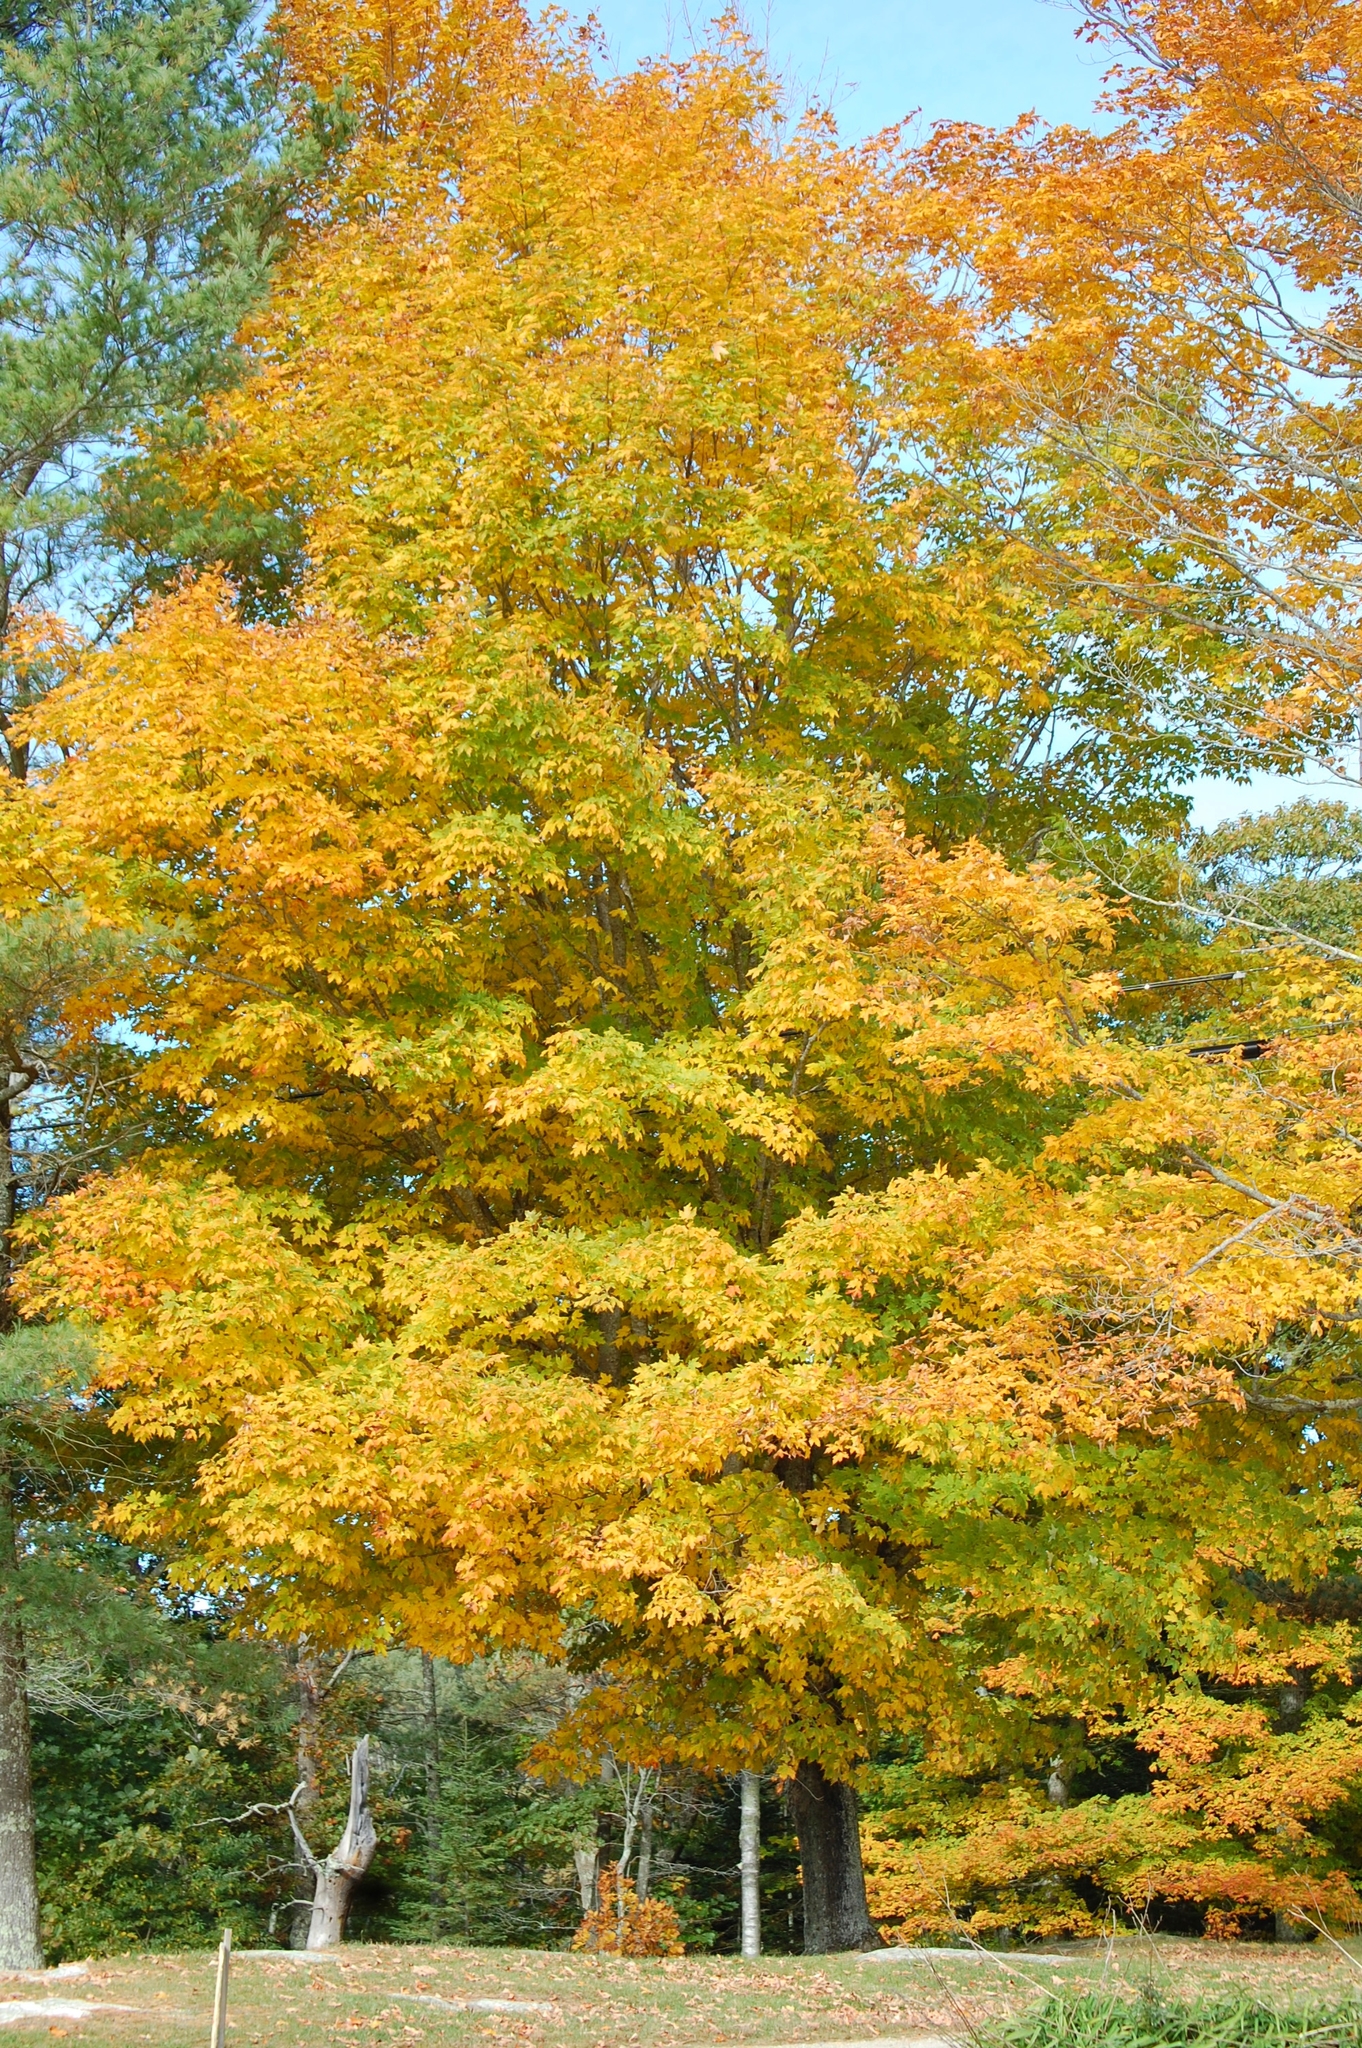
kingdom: Plantae
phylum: Tracheophyta
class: Magnoliopsida
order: Sapindales
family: Sapindaceae
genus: Acer
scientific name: Acer saccharum
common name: Sugar maple
